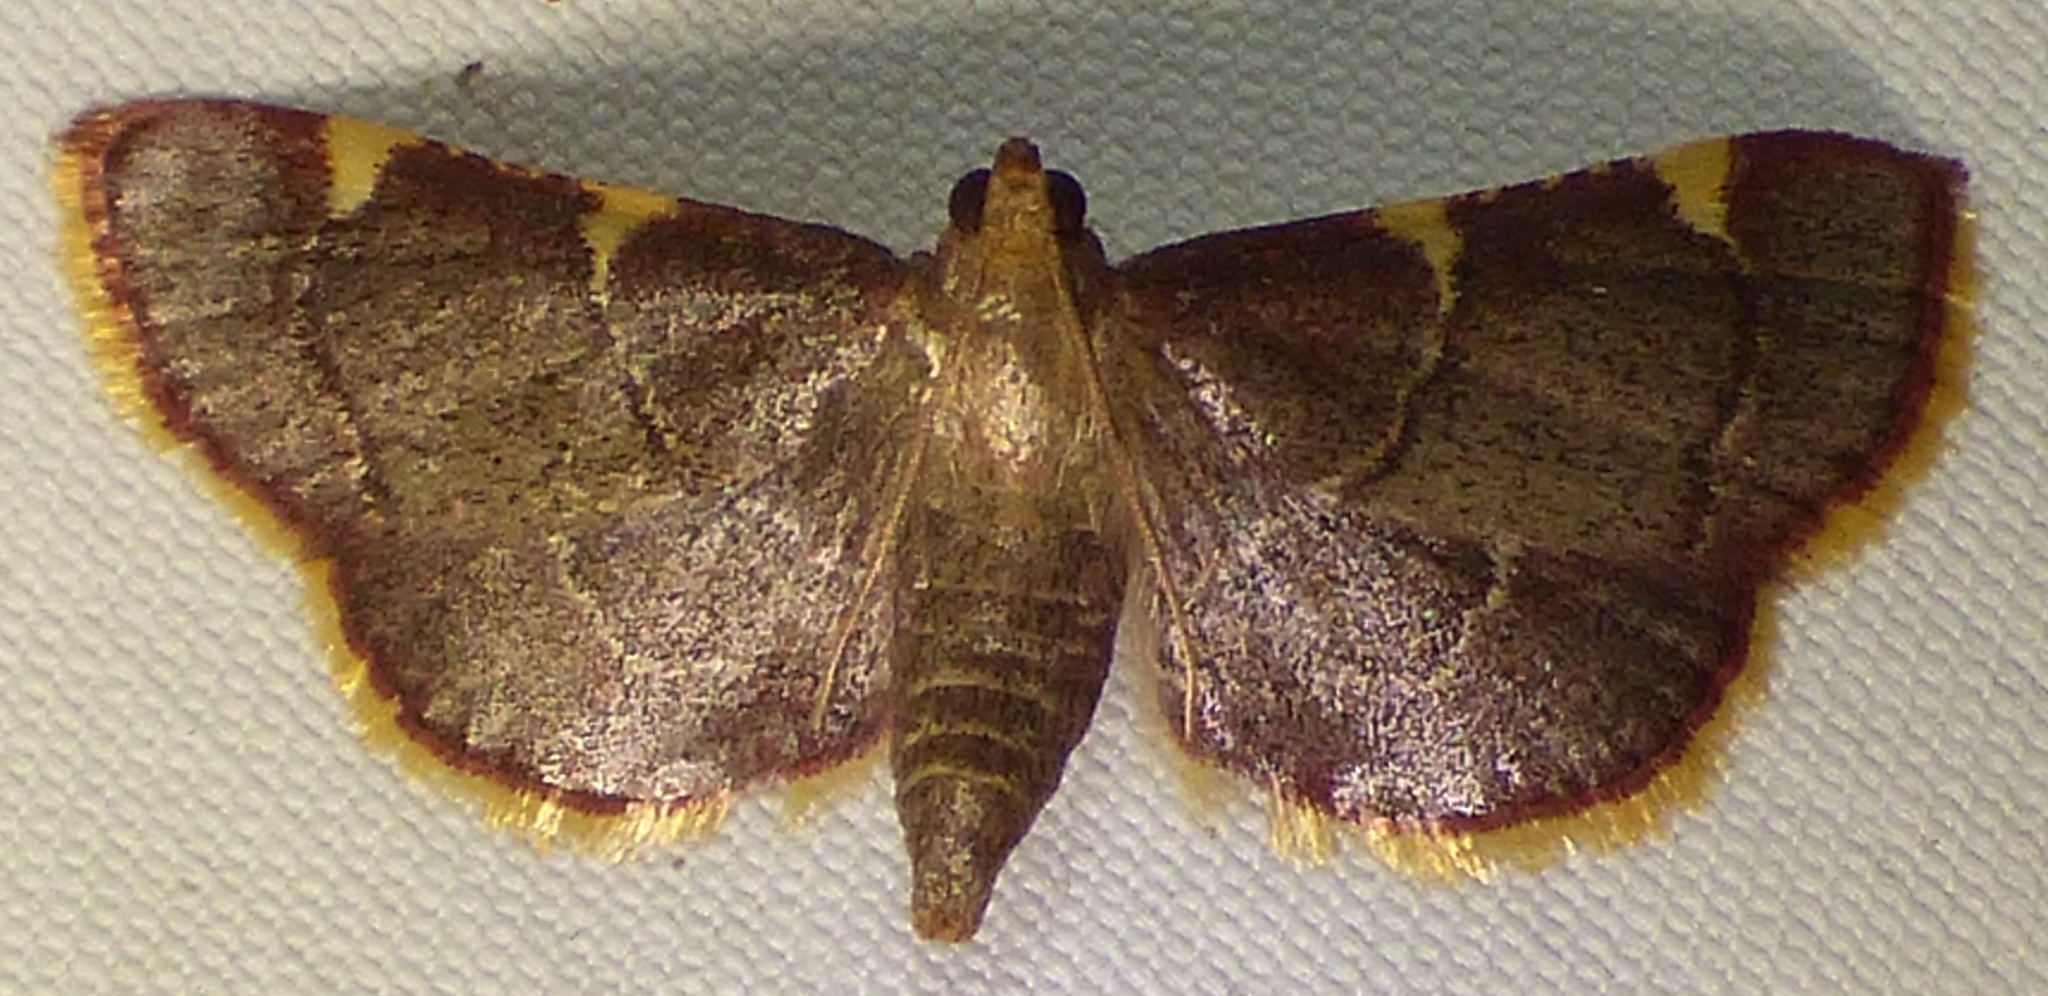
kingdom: Animalia
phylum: Arthropoda
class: Insecta
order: Lepidoptera
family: Pyralidae
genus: Hypsopygia
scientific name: Hypsopygia olinalis
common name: Yellow-fringed dolichomia moth
